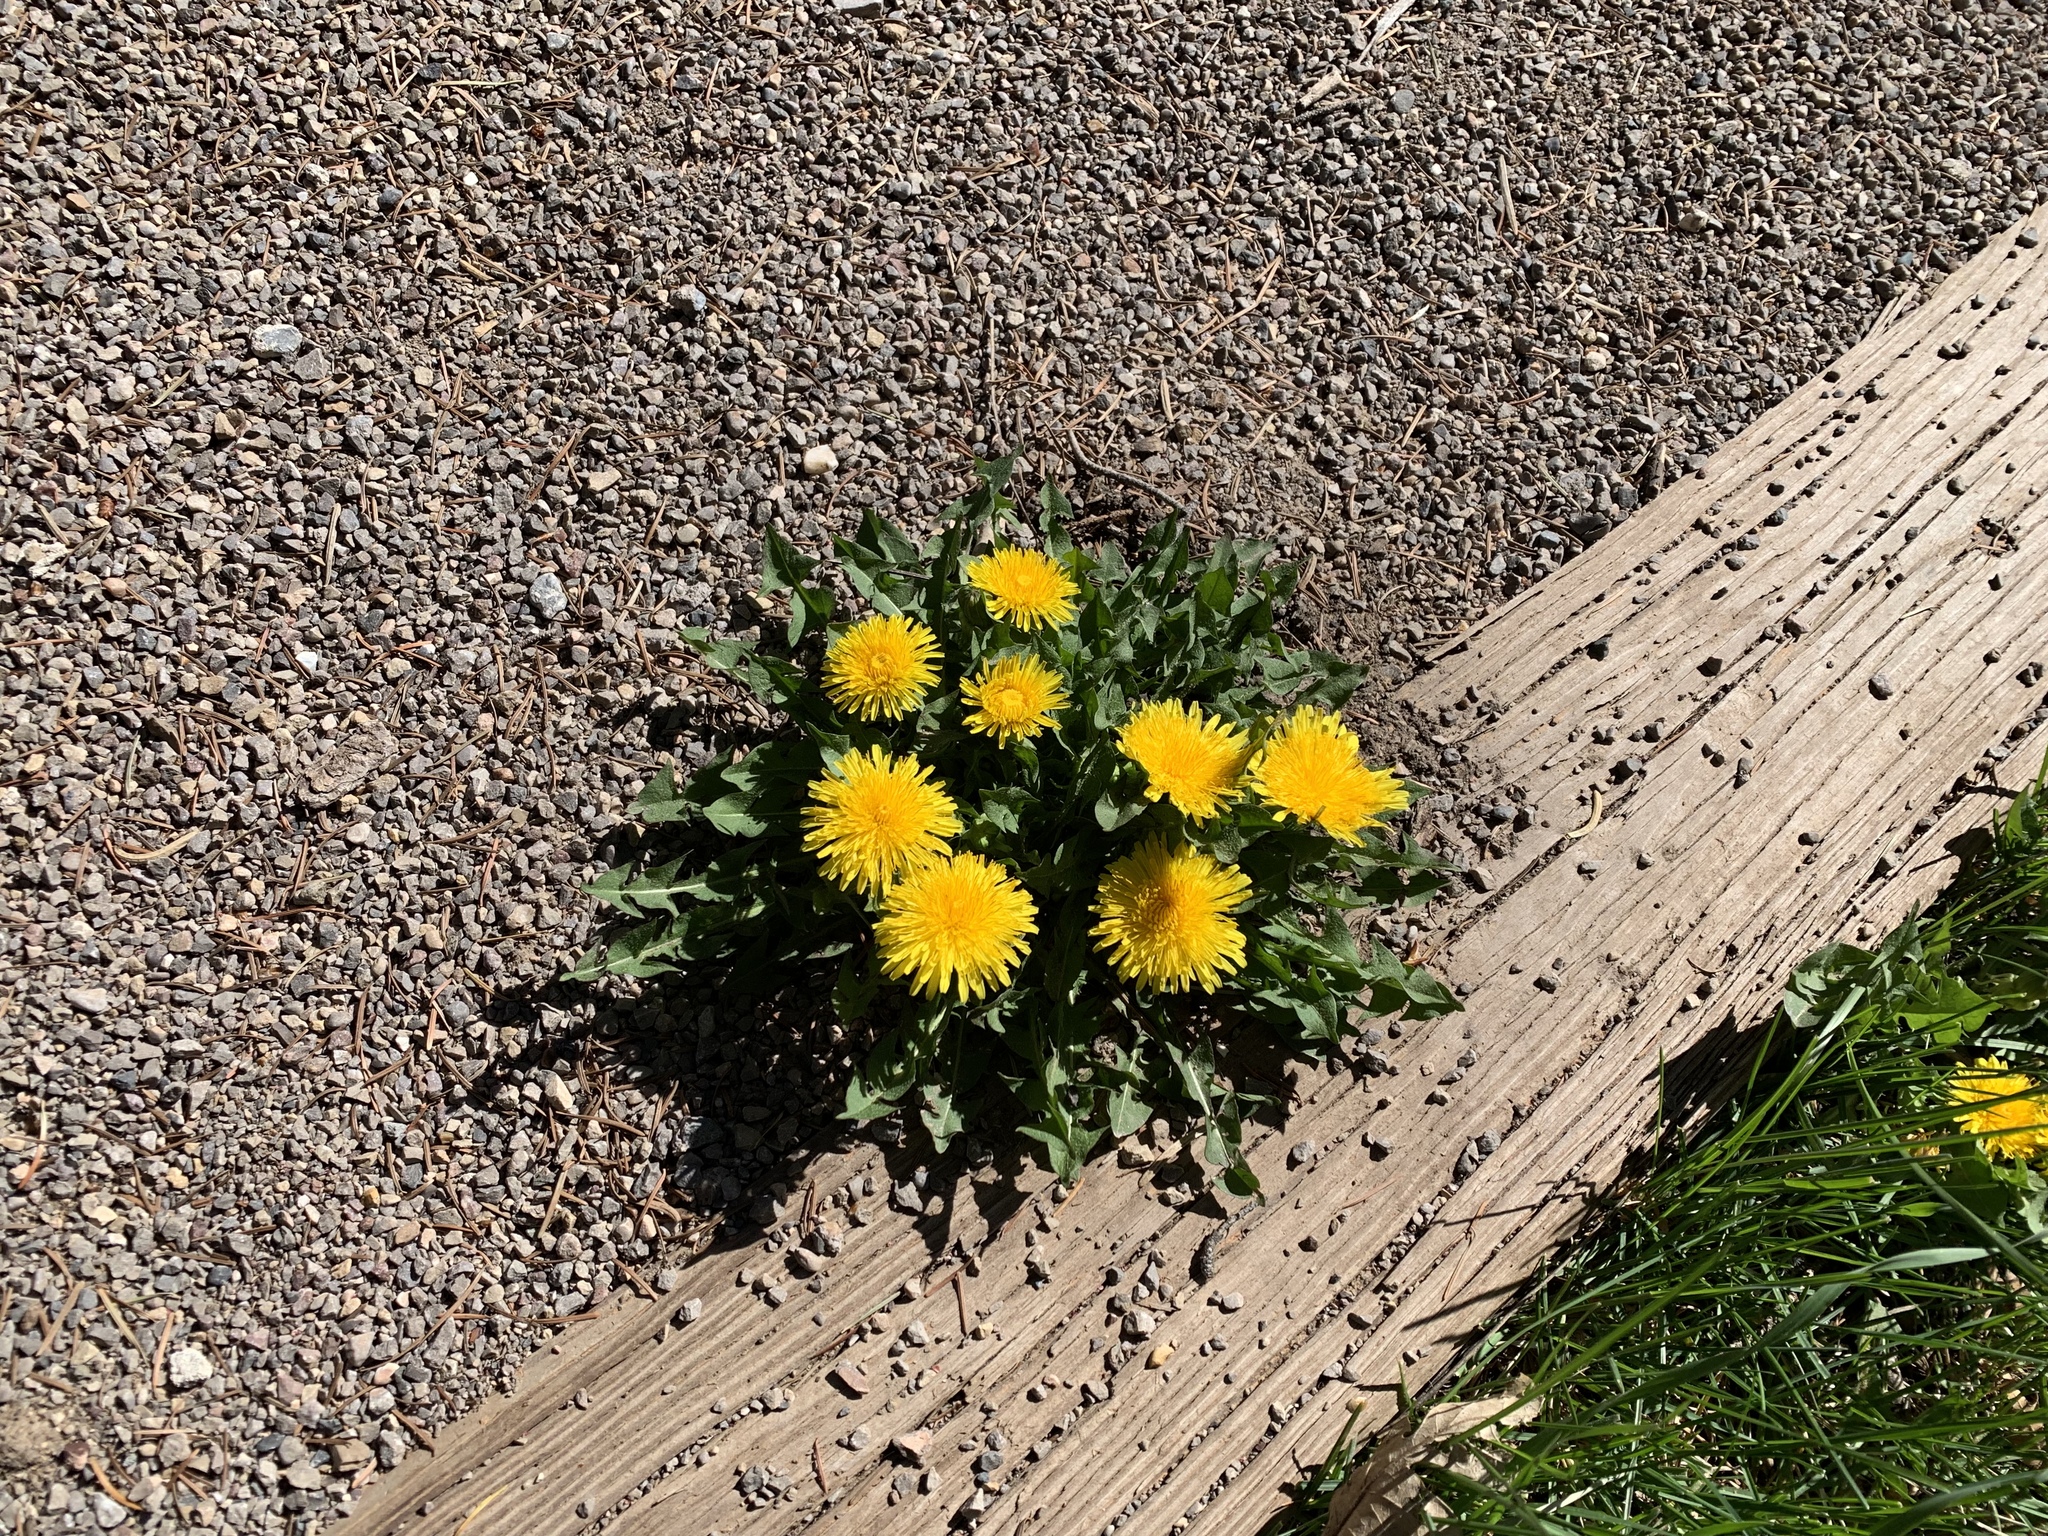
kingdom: Plantae
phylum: Tracheophyta
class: Magnoliopsida
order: Asterales
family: Asteraceae
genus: Taraxacum
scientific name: Taraxacum officinale
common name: Common dandelion
